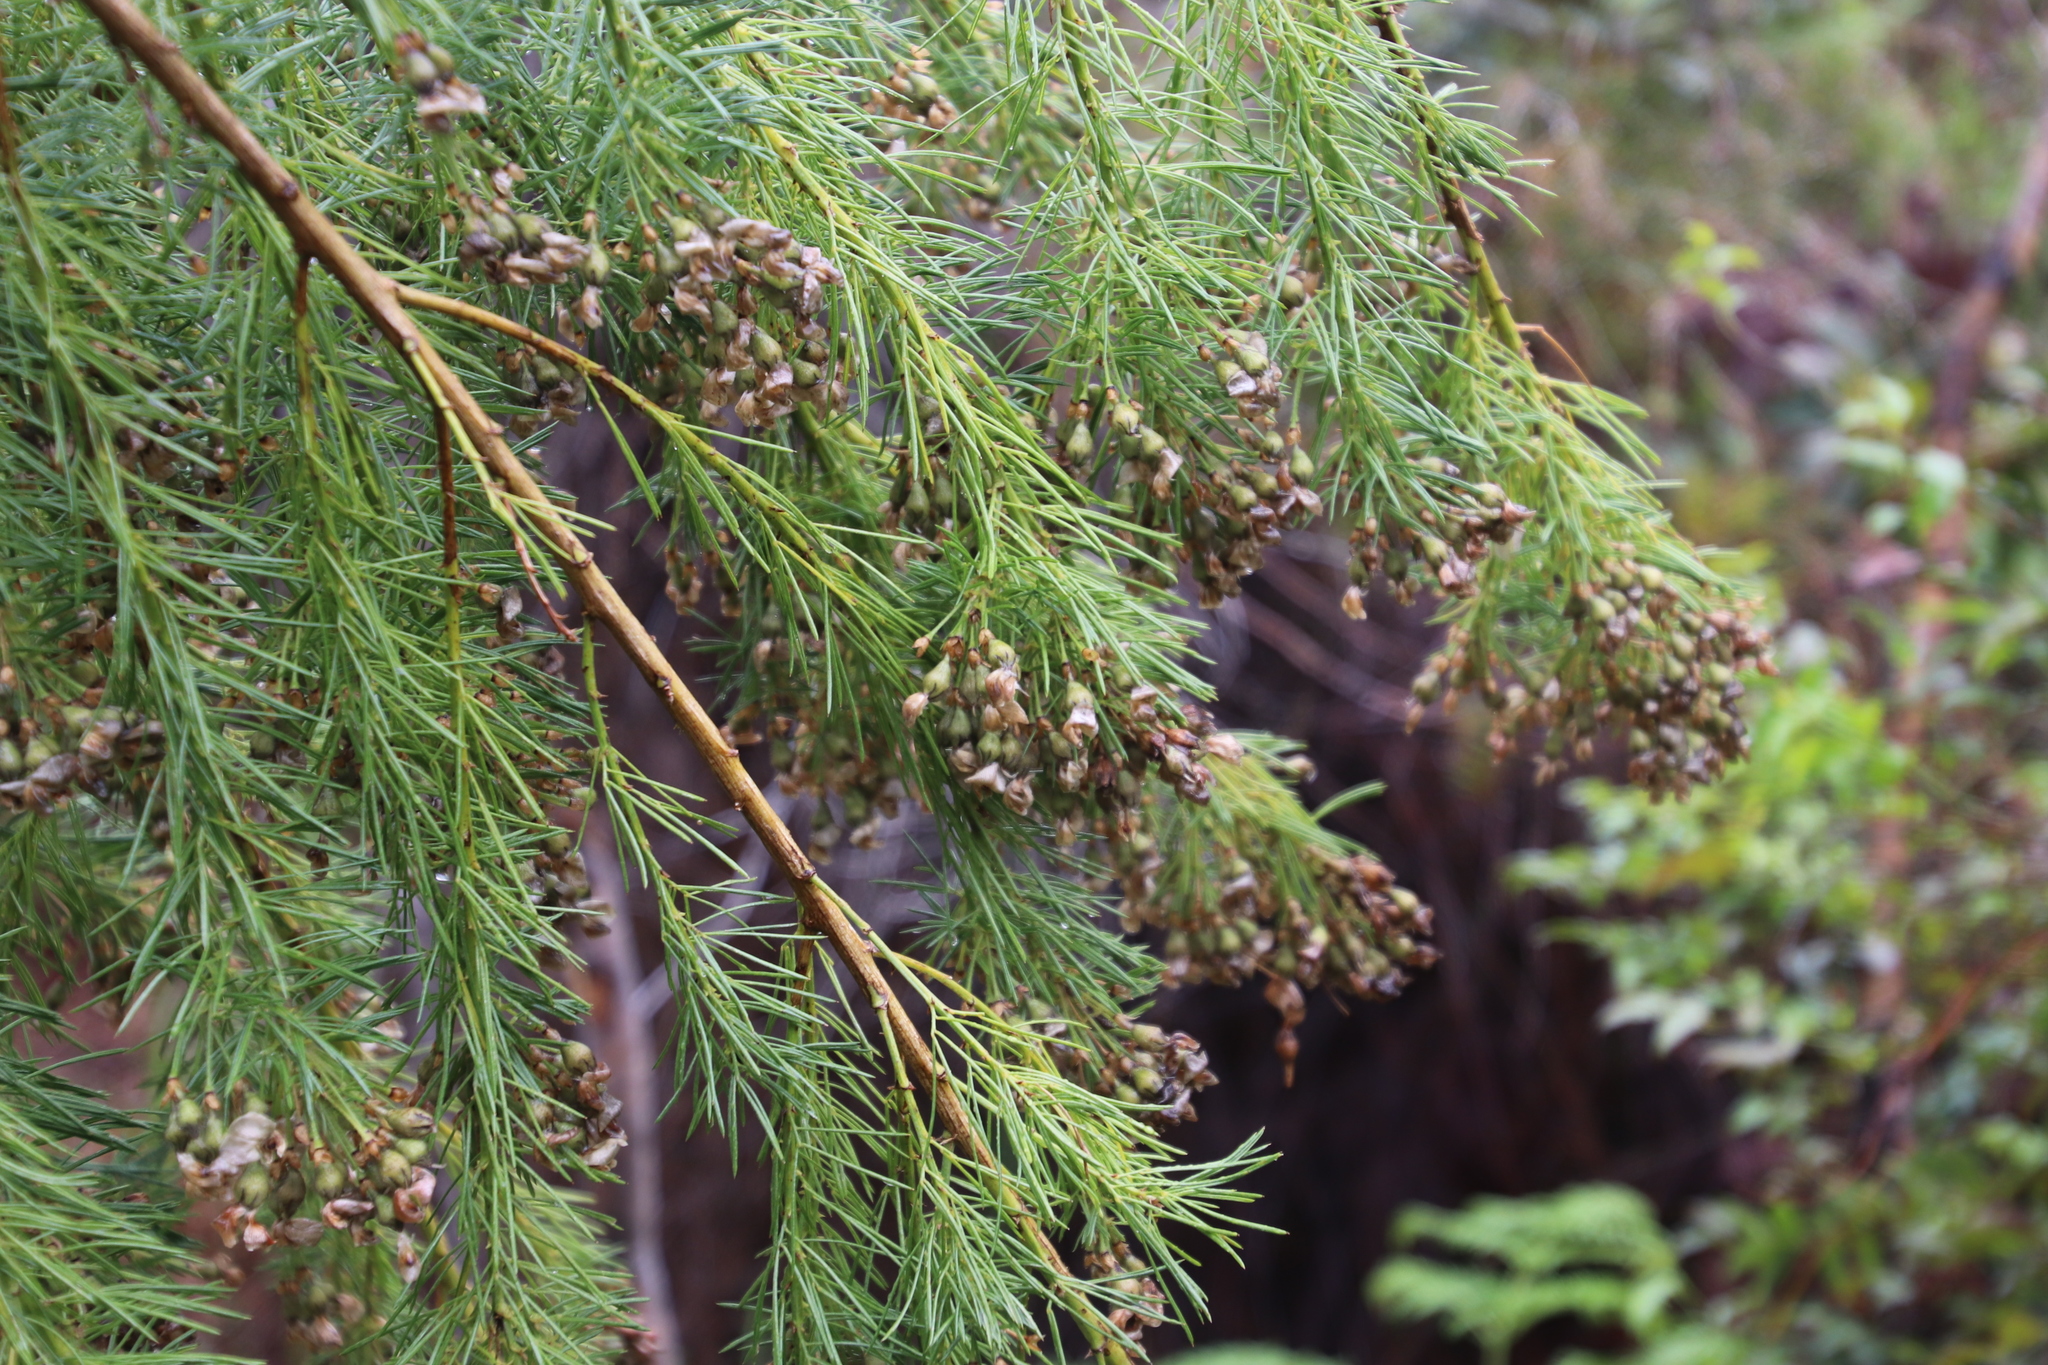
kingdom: Plantae
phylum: Tracheophyta
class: Magnoliopsida
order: Fabales
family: Fabaceae
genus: Psoralea
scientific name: Psoralea arborea
